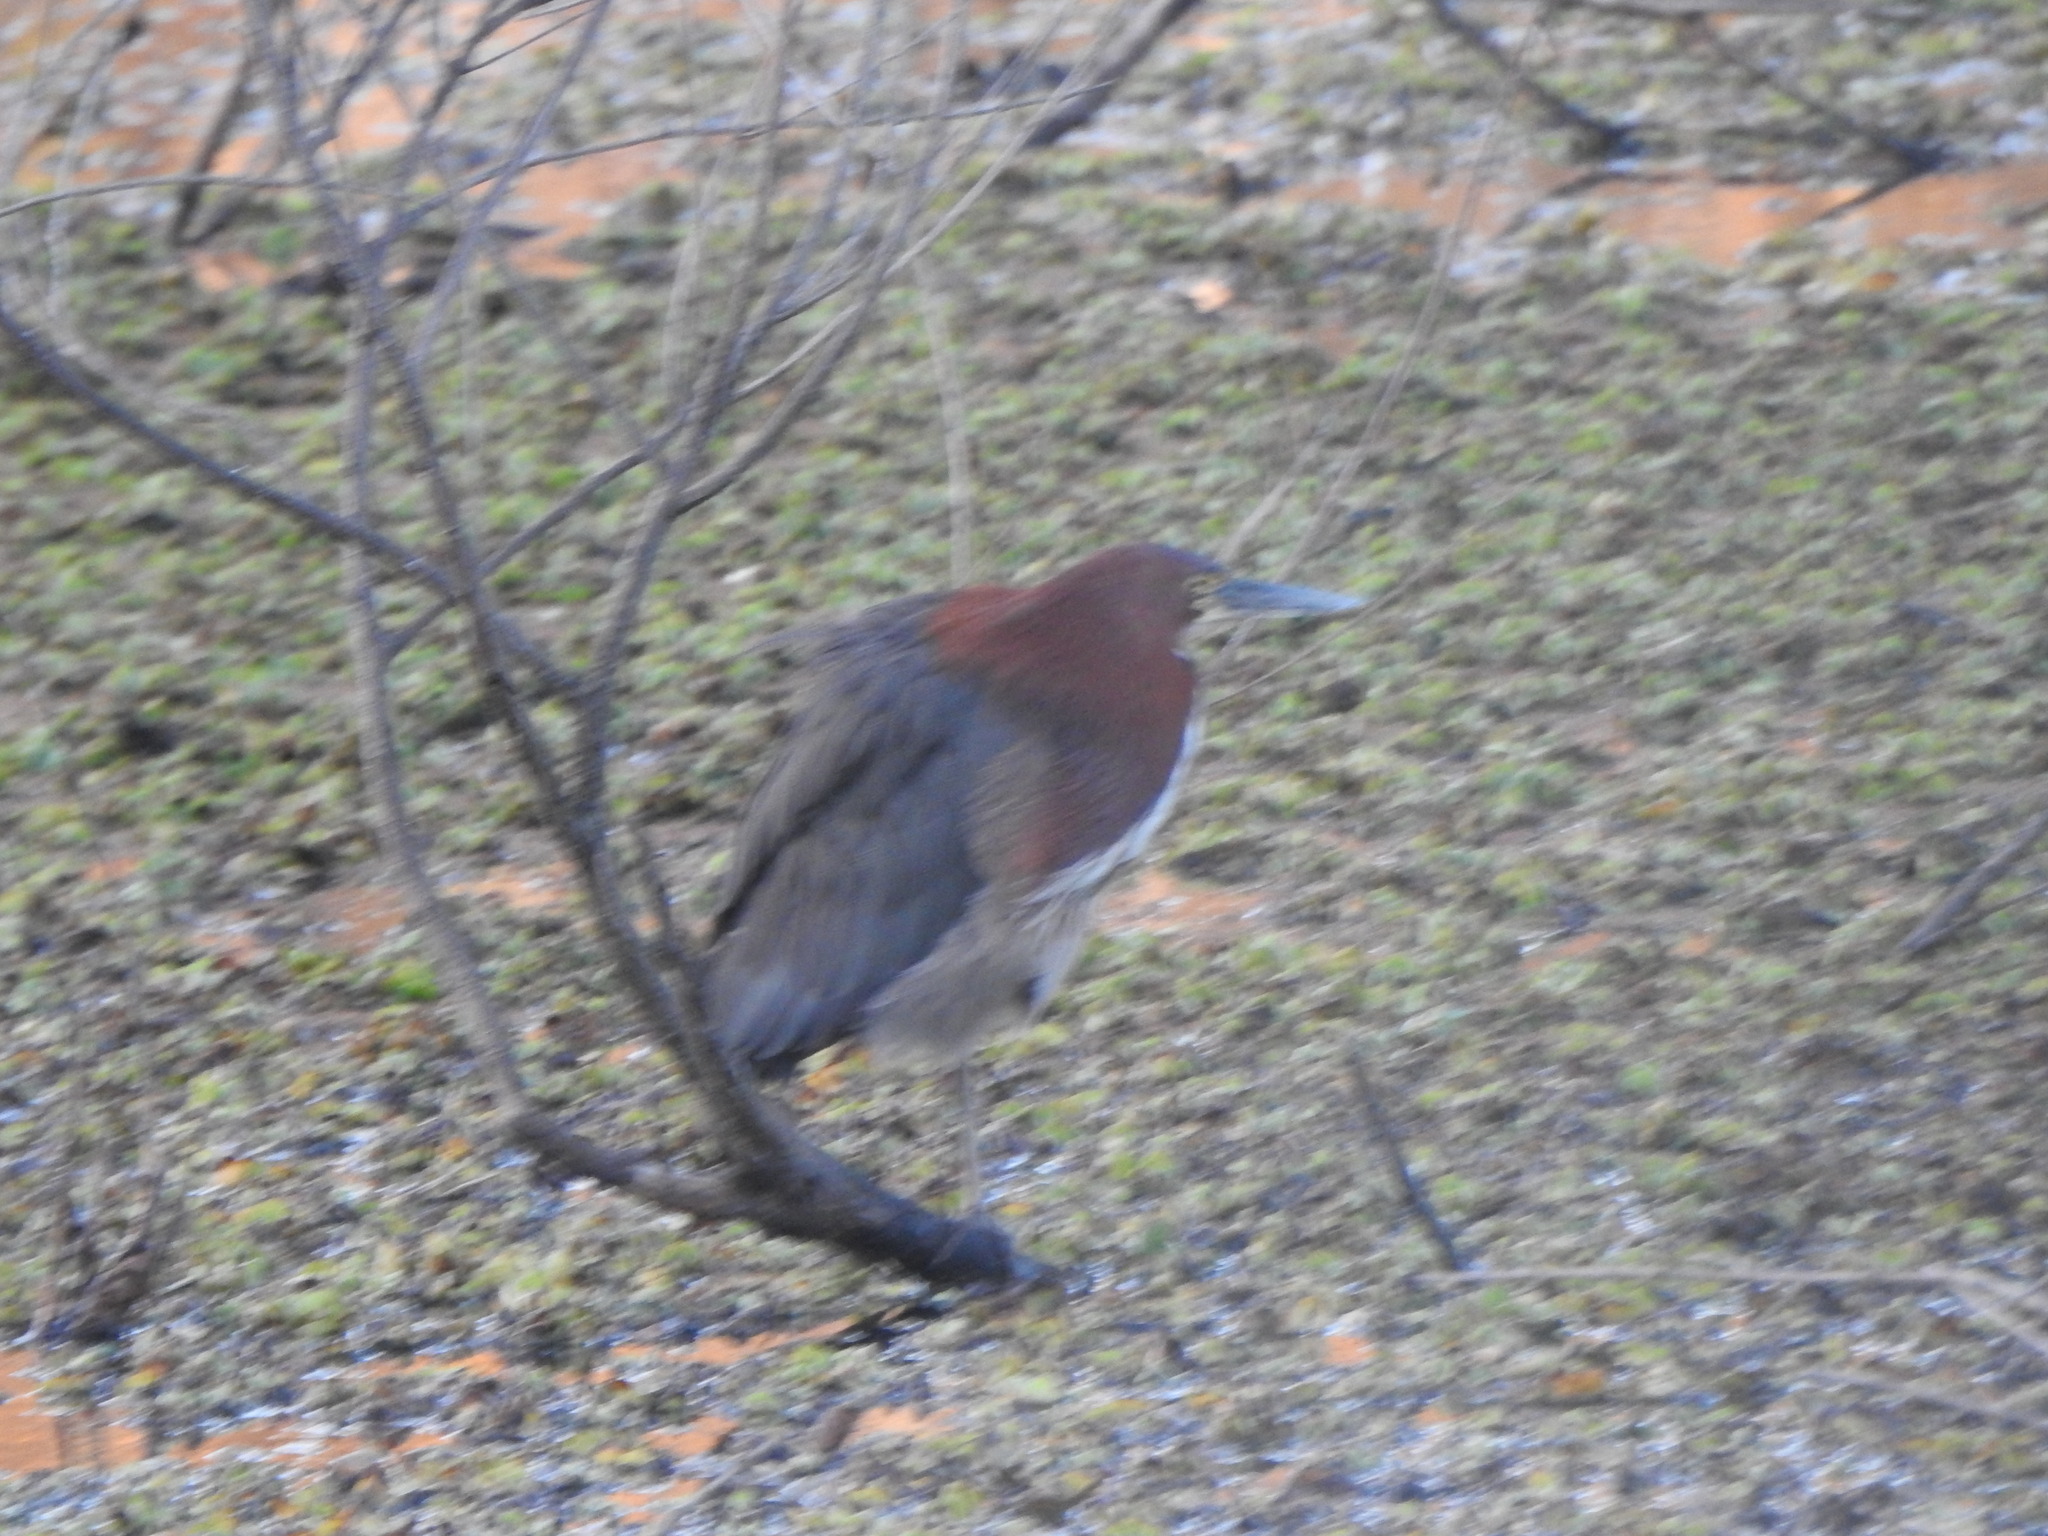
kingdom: Animalia
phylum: Chordata
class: Aves
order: Pelecaniformes
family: Ardeidae
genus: Tigrisoma
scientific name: Tigrisoma lineatum
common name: Rufescent tiger-heron
